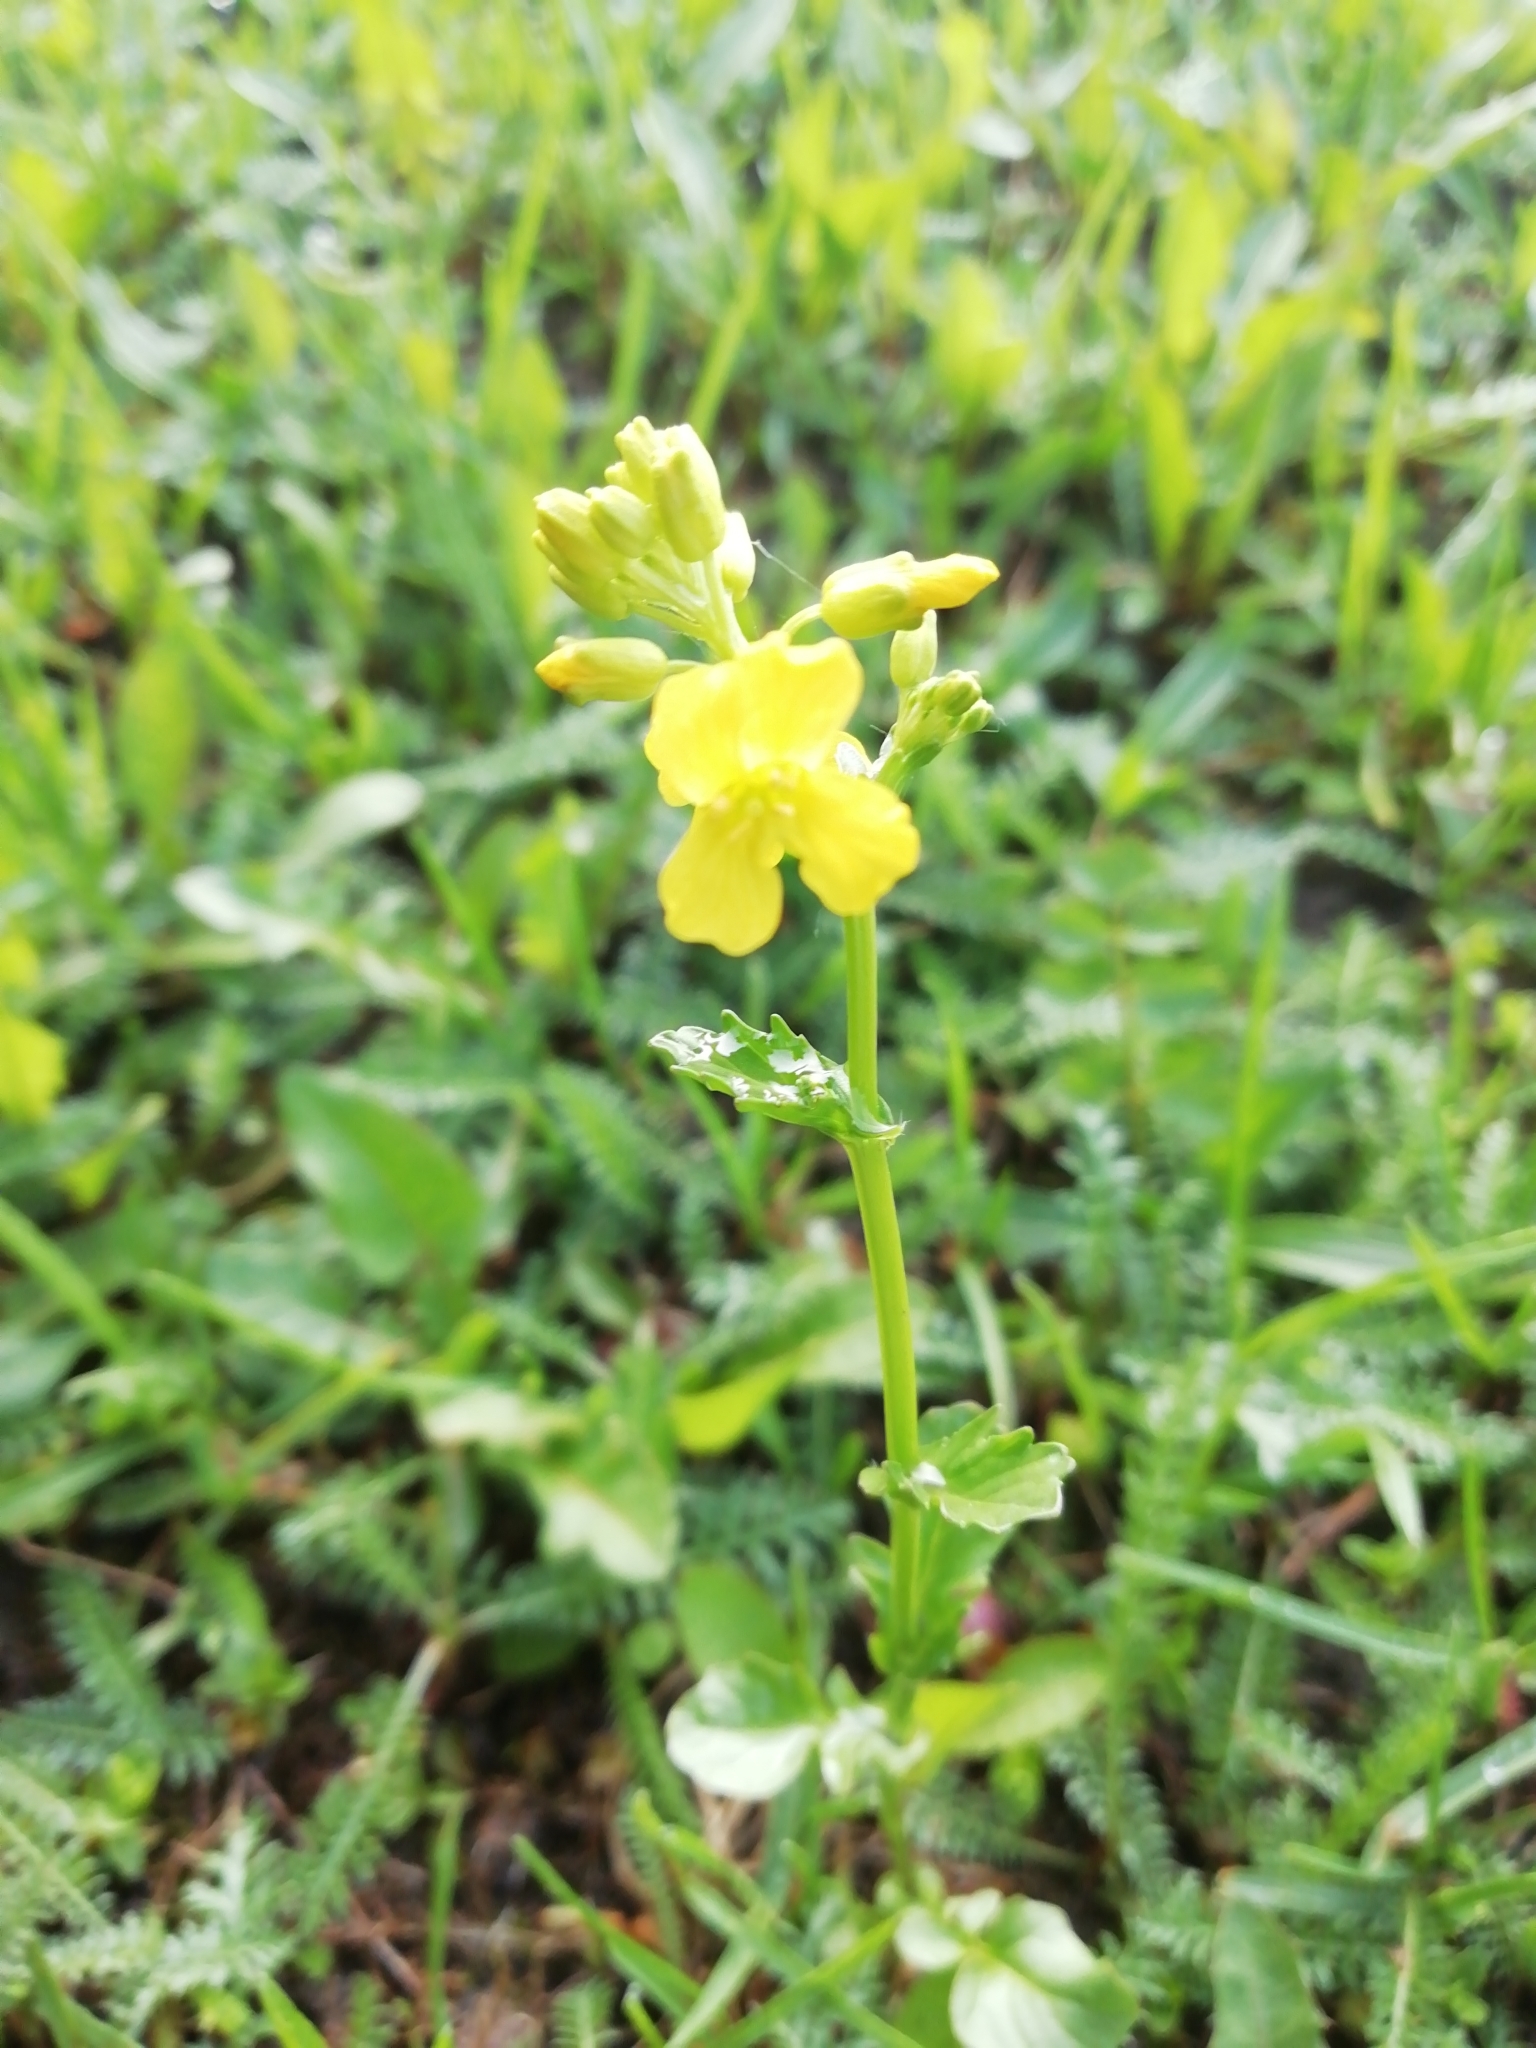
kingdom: Plantae
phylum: Tracheophyta
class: Magnoliopsida
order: Brassicales
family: Brassicaceae
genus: Barbarea
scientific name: Barbarea vulgaris
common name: Cressy-greens
